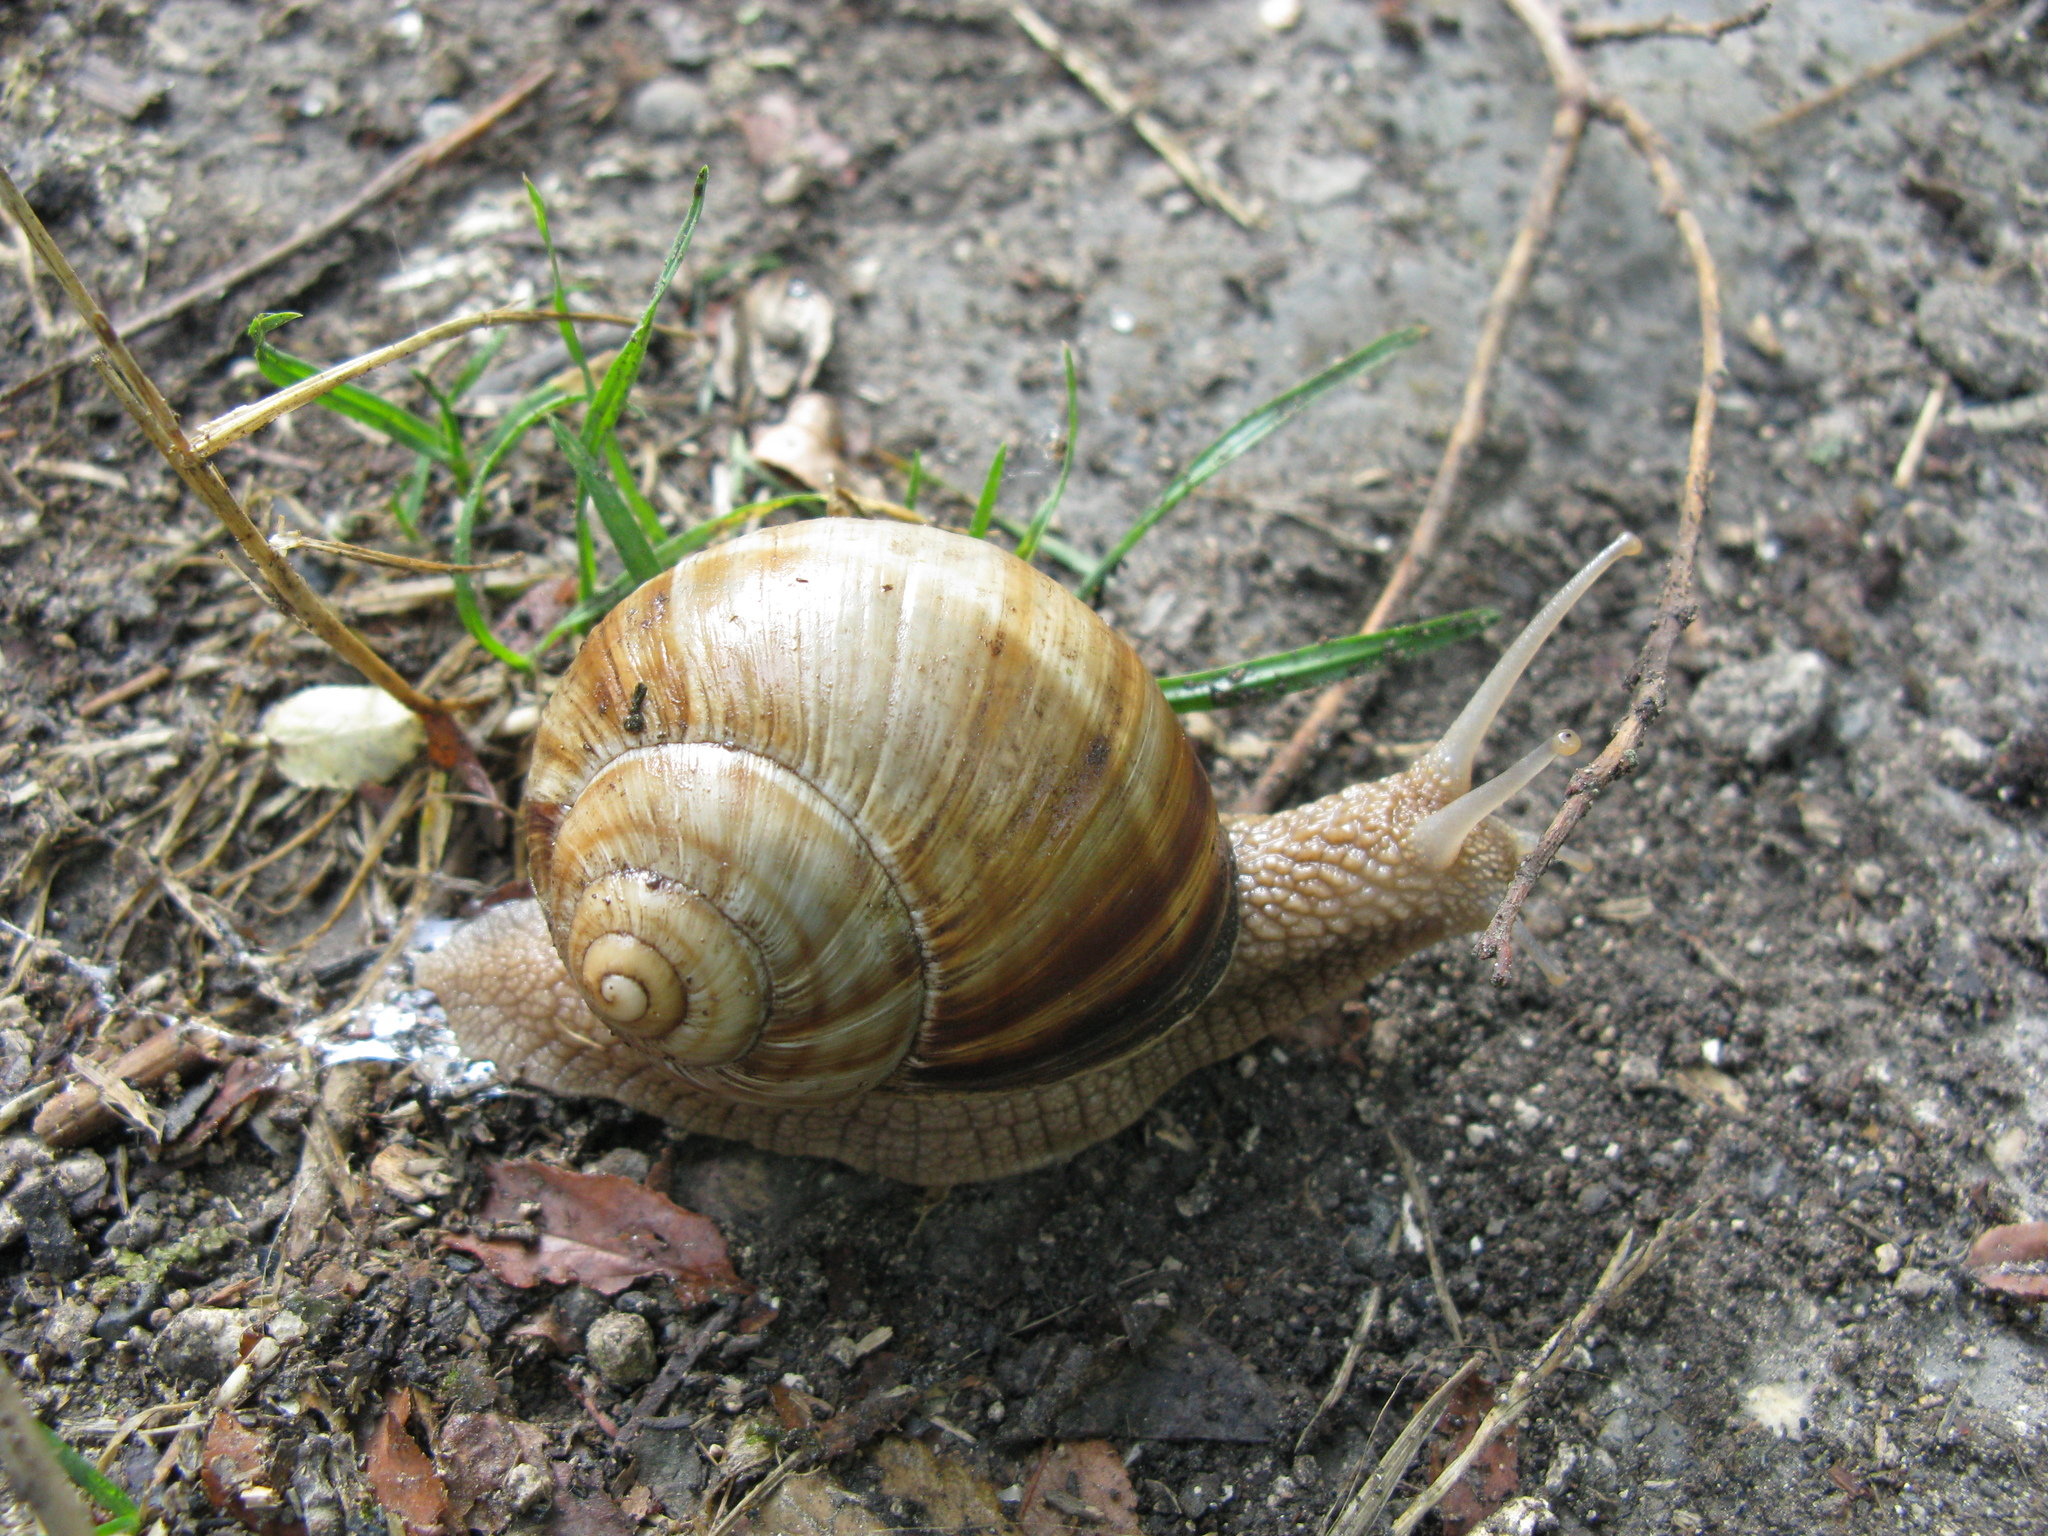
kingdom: Animalia
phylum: Mollusca
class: Gastropoda
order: Stylommatophora
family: Helicidae
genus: Helix
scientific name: Helix lucorum
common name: Turkish snail
